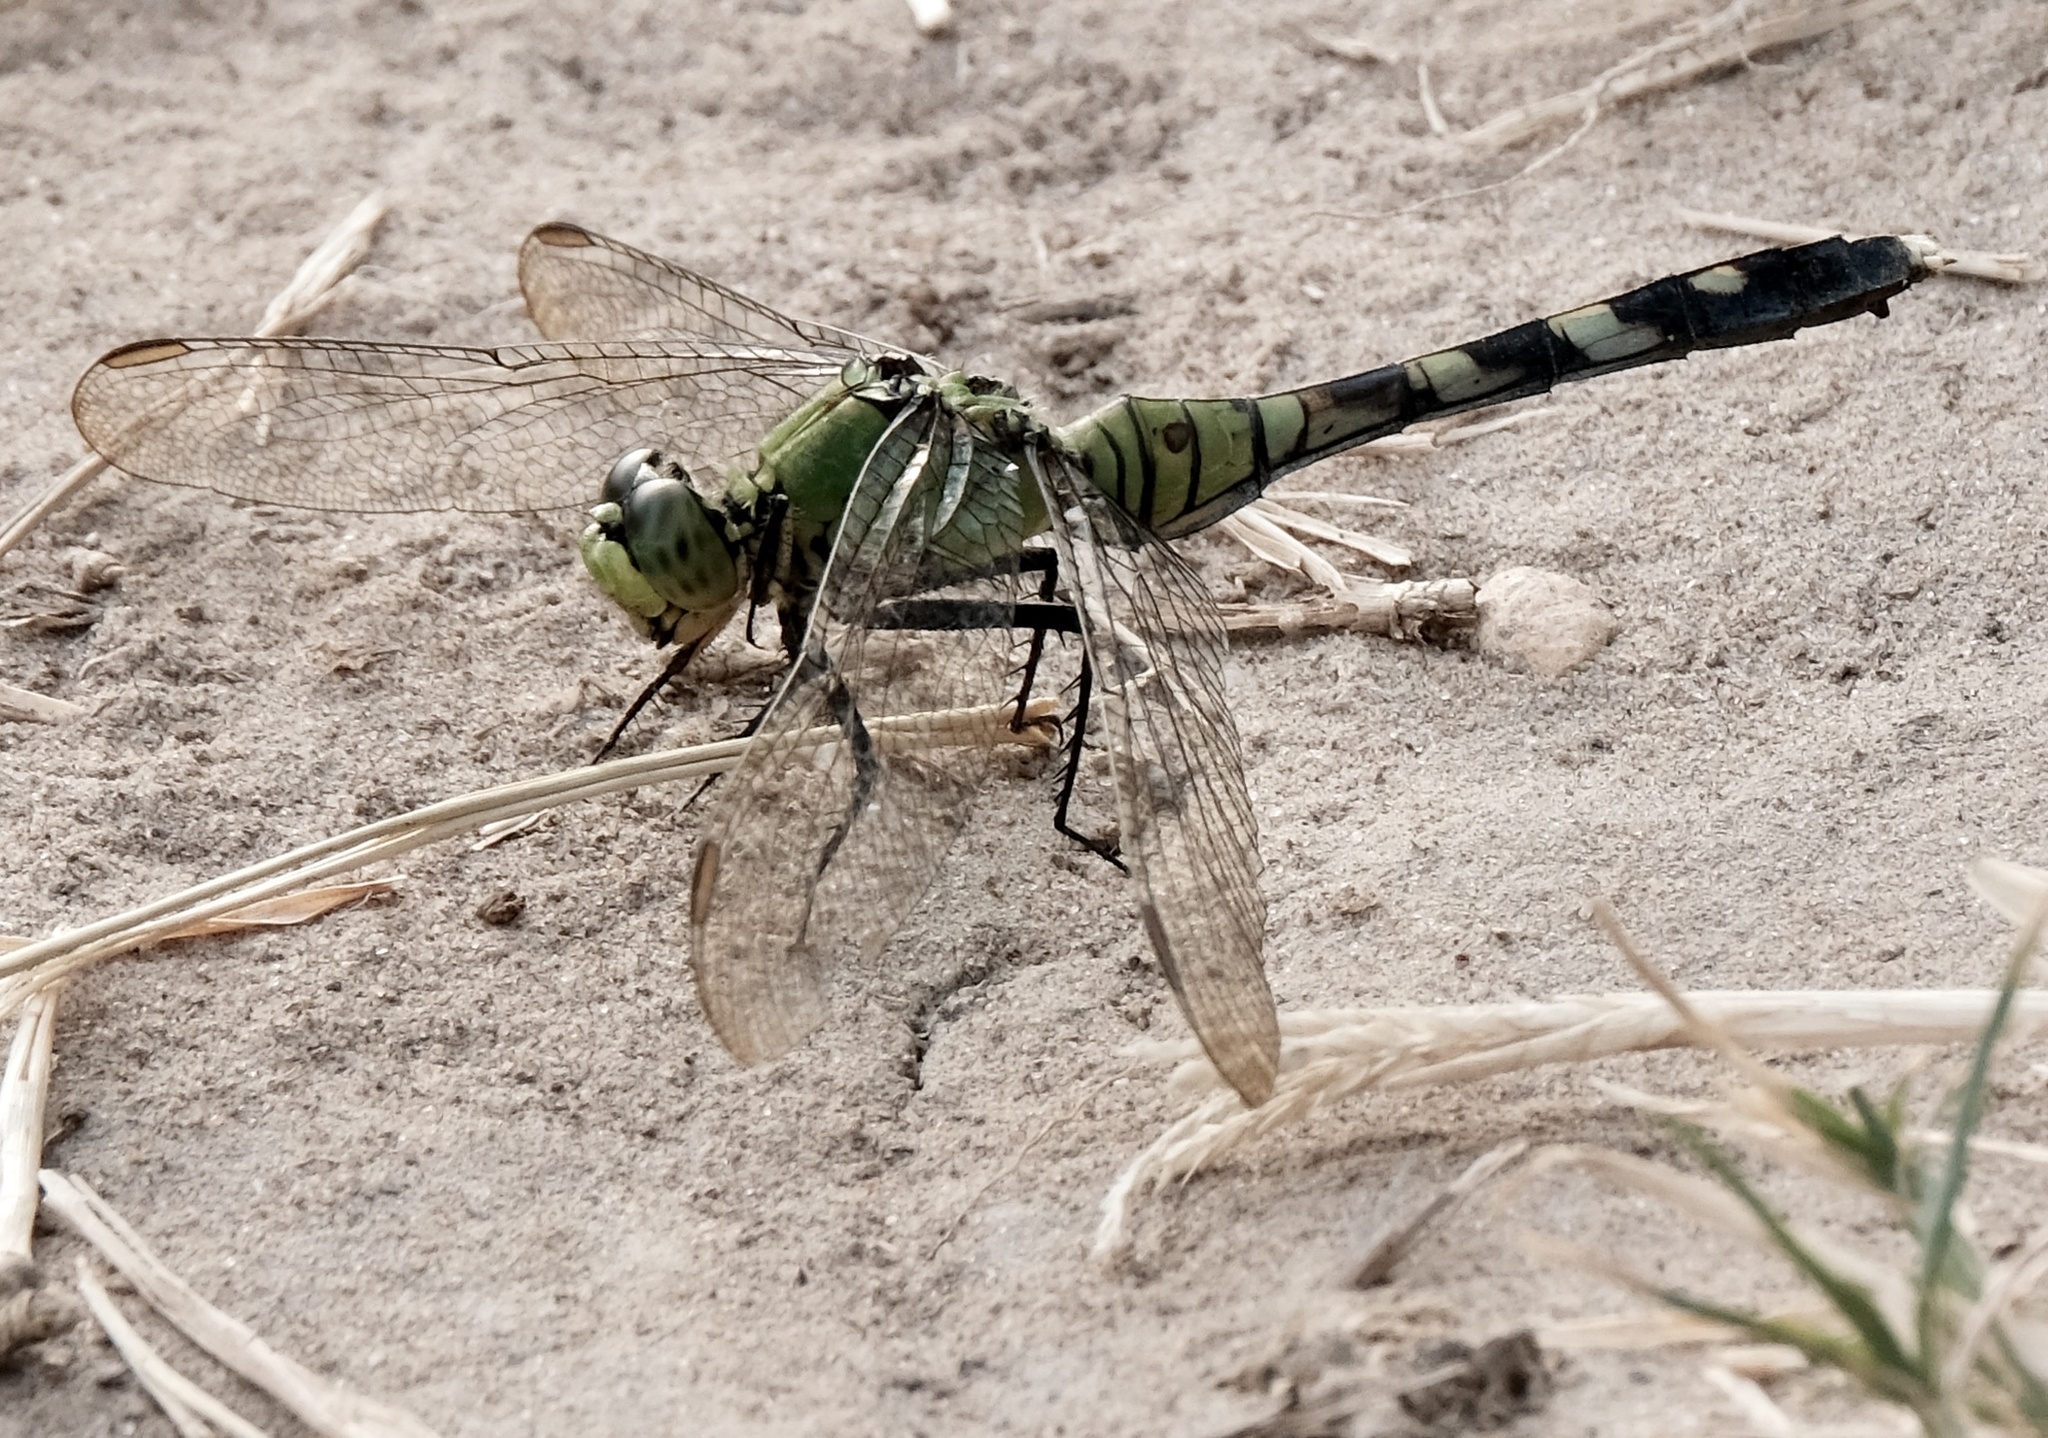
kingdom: Animalia
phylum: Arthropoda
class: Insecta
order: Odonata
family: Libellulidae
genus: Erythemis
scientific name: Erythemis simplicicollis
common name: Eastern pondhawk
